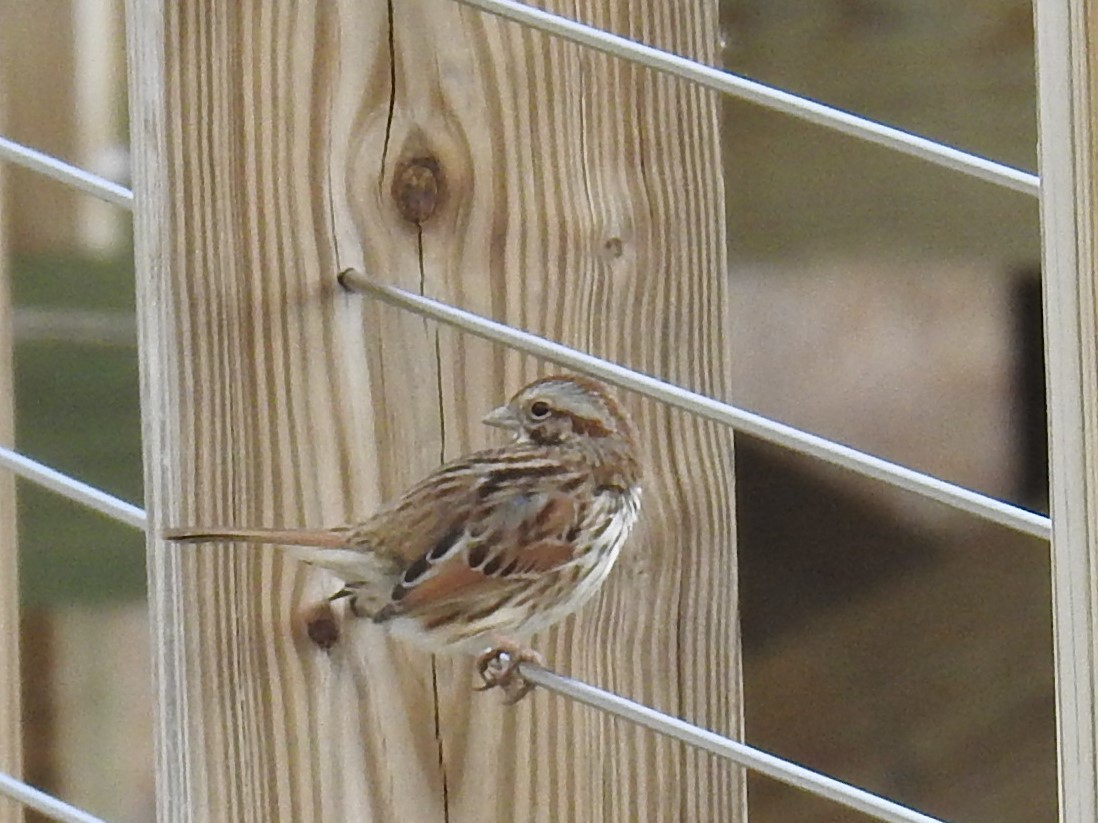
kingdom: Animalia
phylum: Chordata
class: Aves
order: Passeriformes
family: Passerellidae
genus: Melospiza
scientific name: Melospiza melodia
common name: Song sparrow
